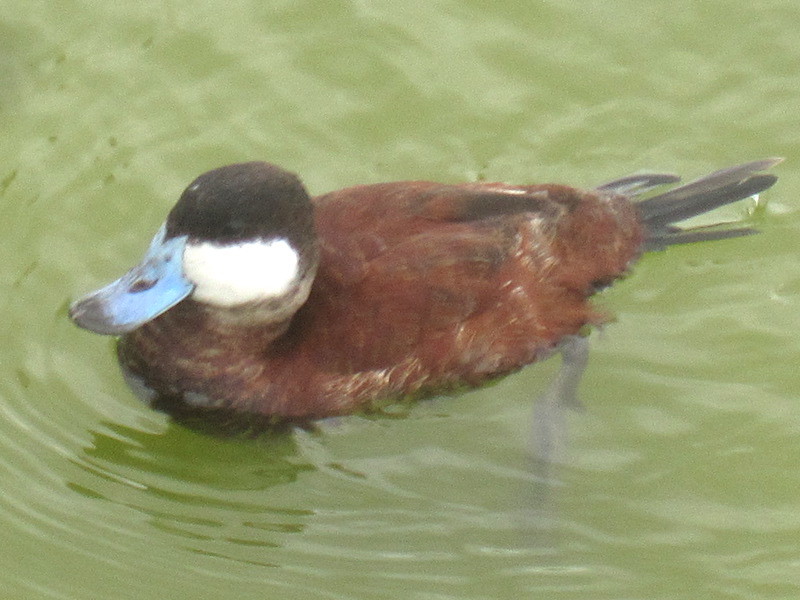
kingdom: Animalia
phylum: Chordata
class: Aves
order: Anseriformes
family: Anatidae
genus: Oxyura
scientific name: Oxyura jamaicensis
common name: Ruddy duck
